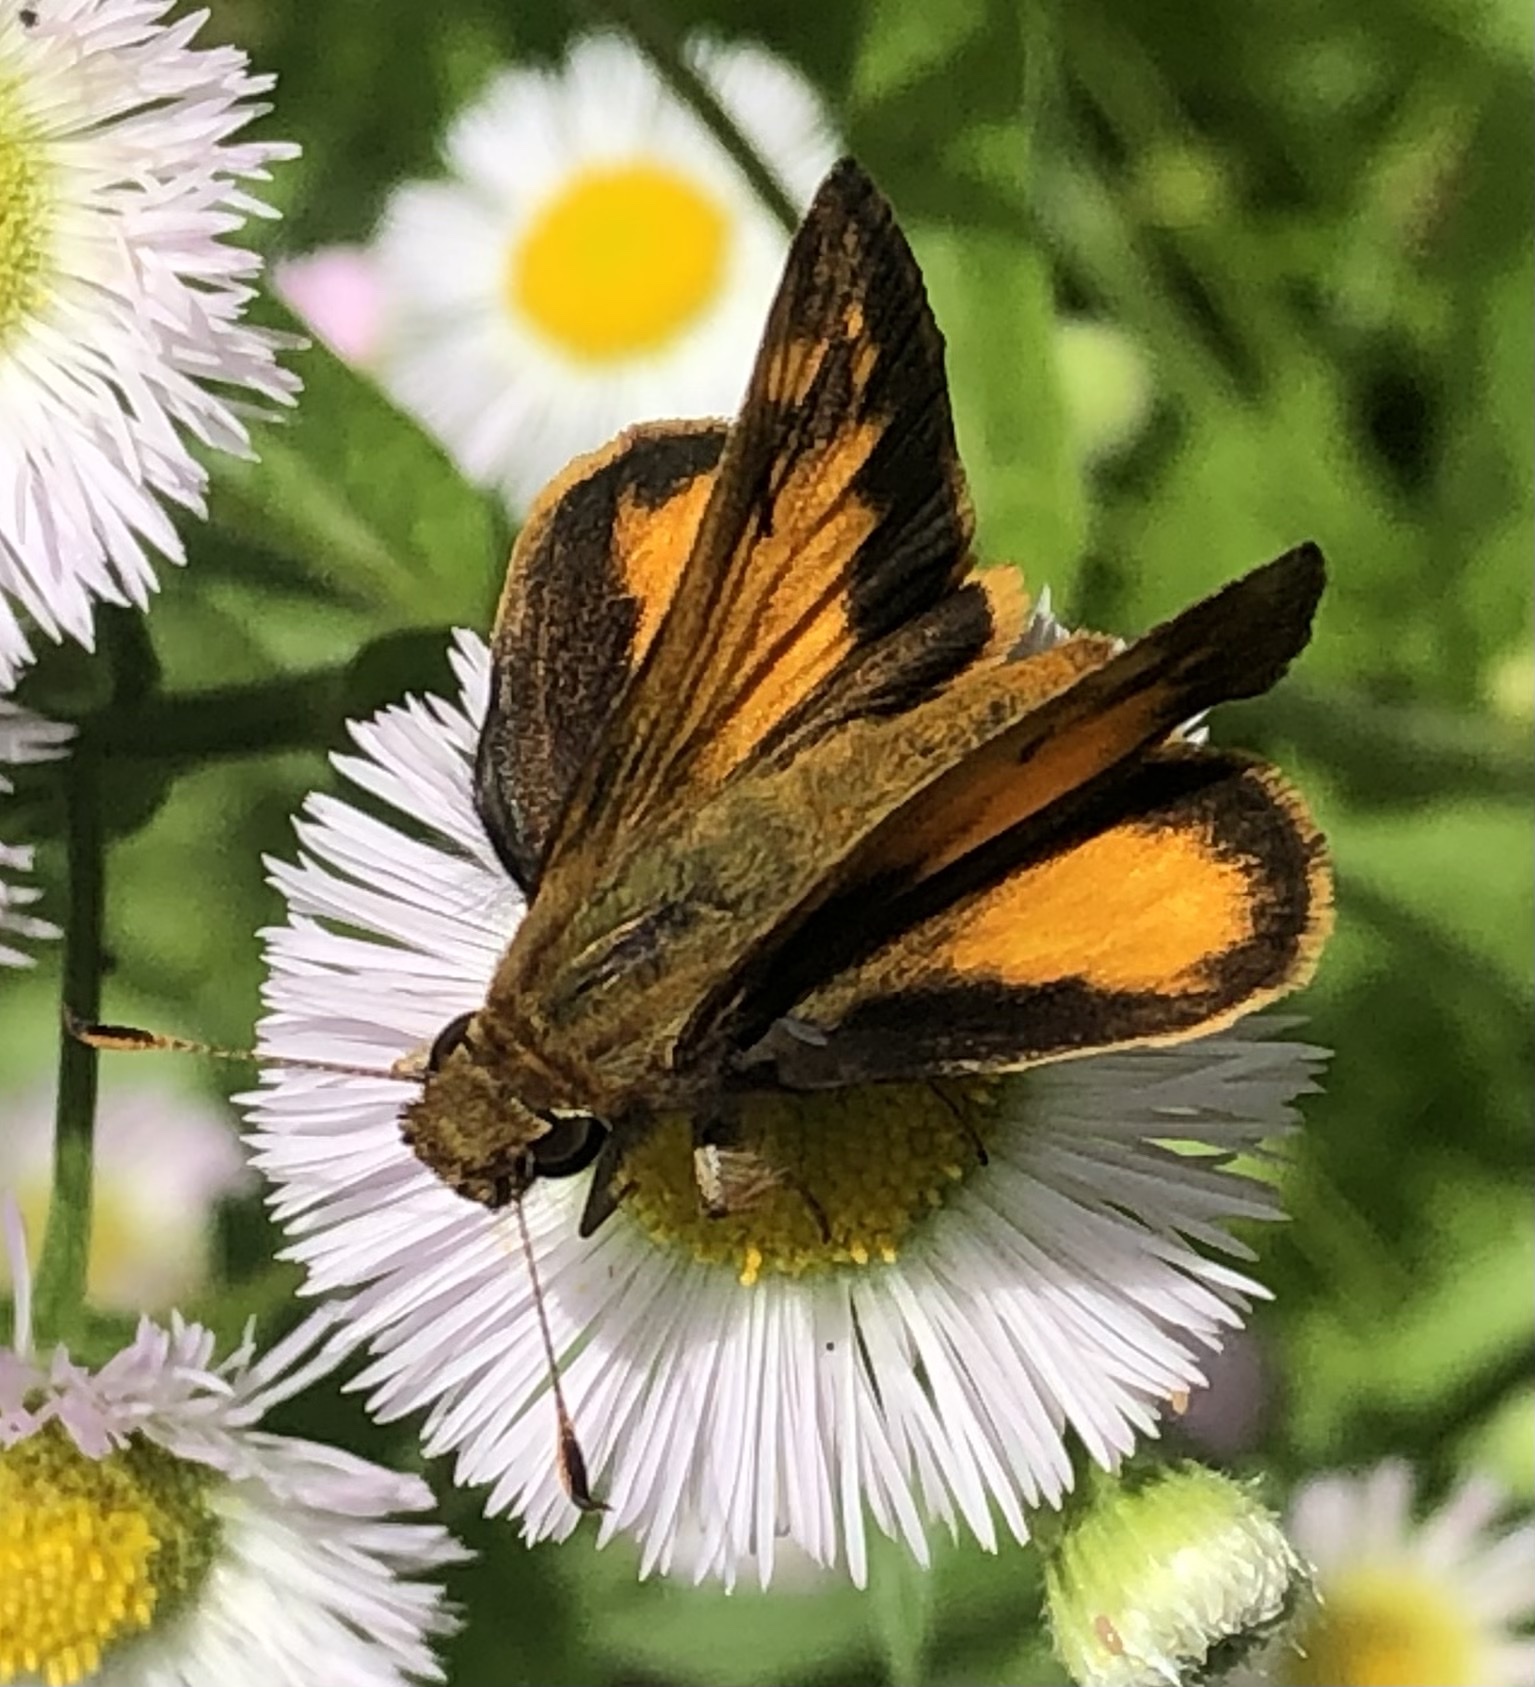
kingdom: Animalia
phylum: Arthropoda
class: Insecta
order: Lepidoptera
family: Hesperiidae
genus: Lon
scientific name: Lon zabulon
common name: Zabulon skipper
